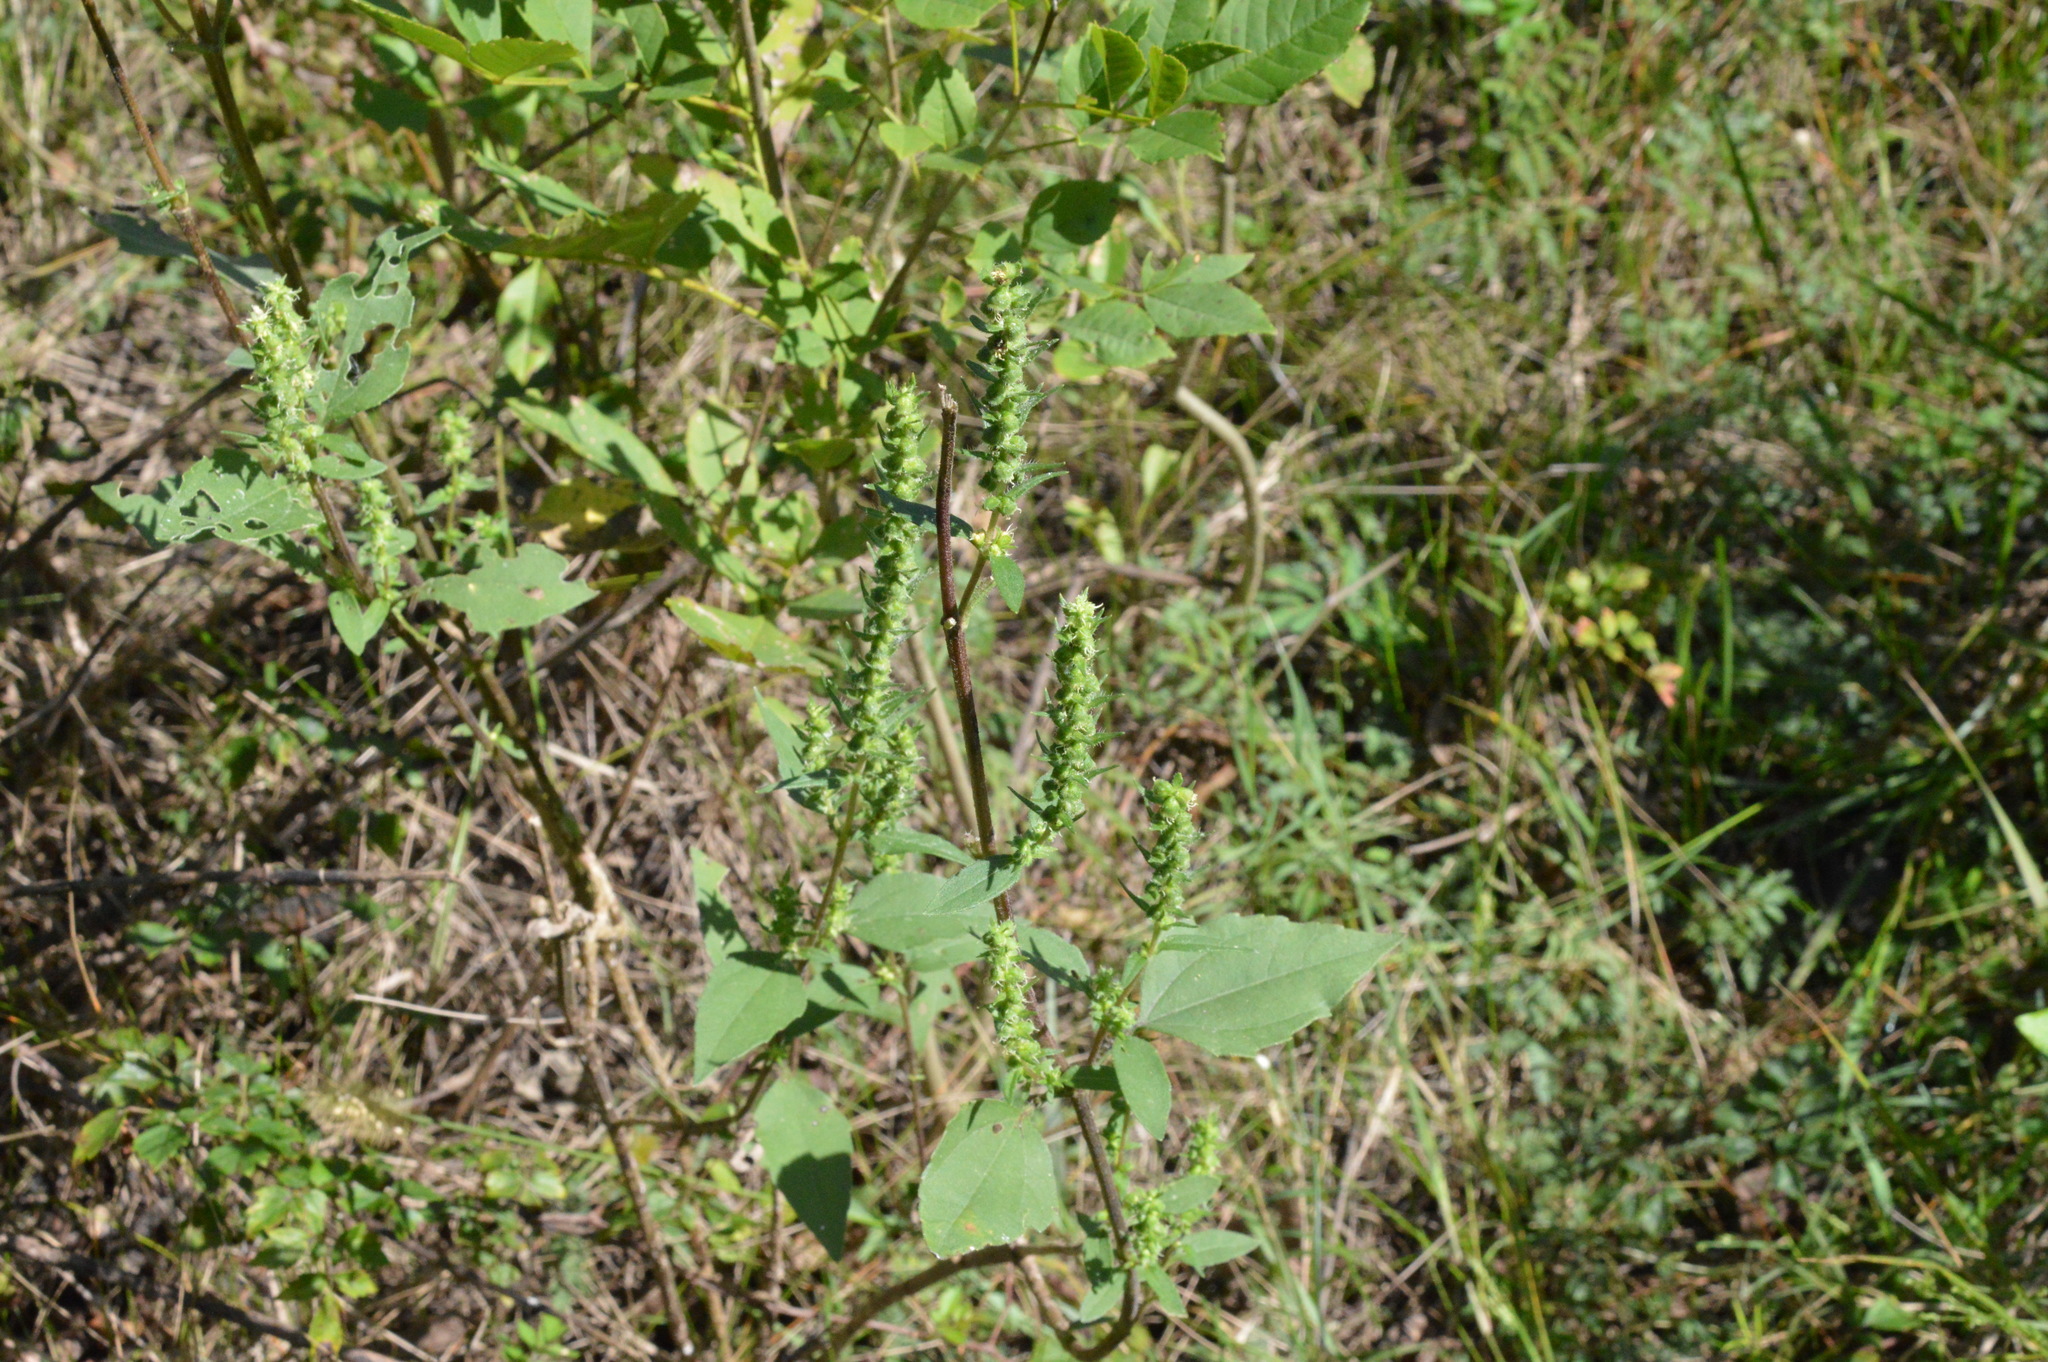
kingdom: Plantae
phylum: Tracheophyta
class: Magnoliopsida
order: Asterales
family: Asteraceae
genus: Iva
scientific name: Iva annua
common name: Marsh-elder
